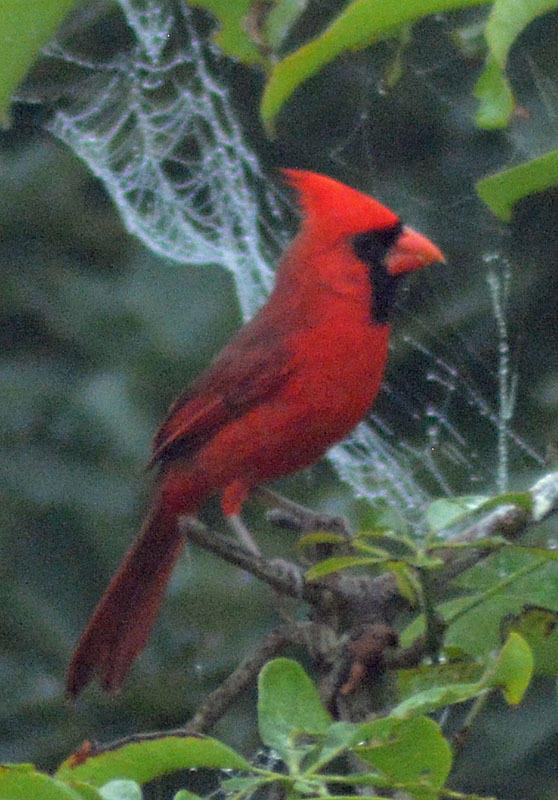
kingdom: Animalia
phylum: Chordata
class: Aves
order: Passeriformes
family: Cardinalidae
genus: Cardinalis
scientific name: Cardinalis cardinalis
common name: Northern cardinal
